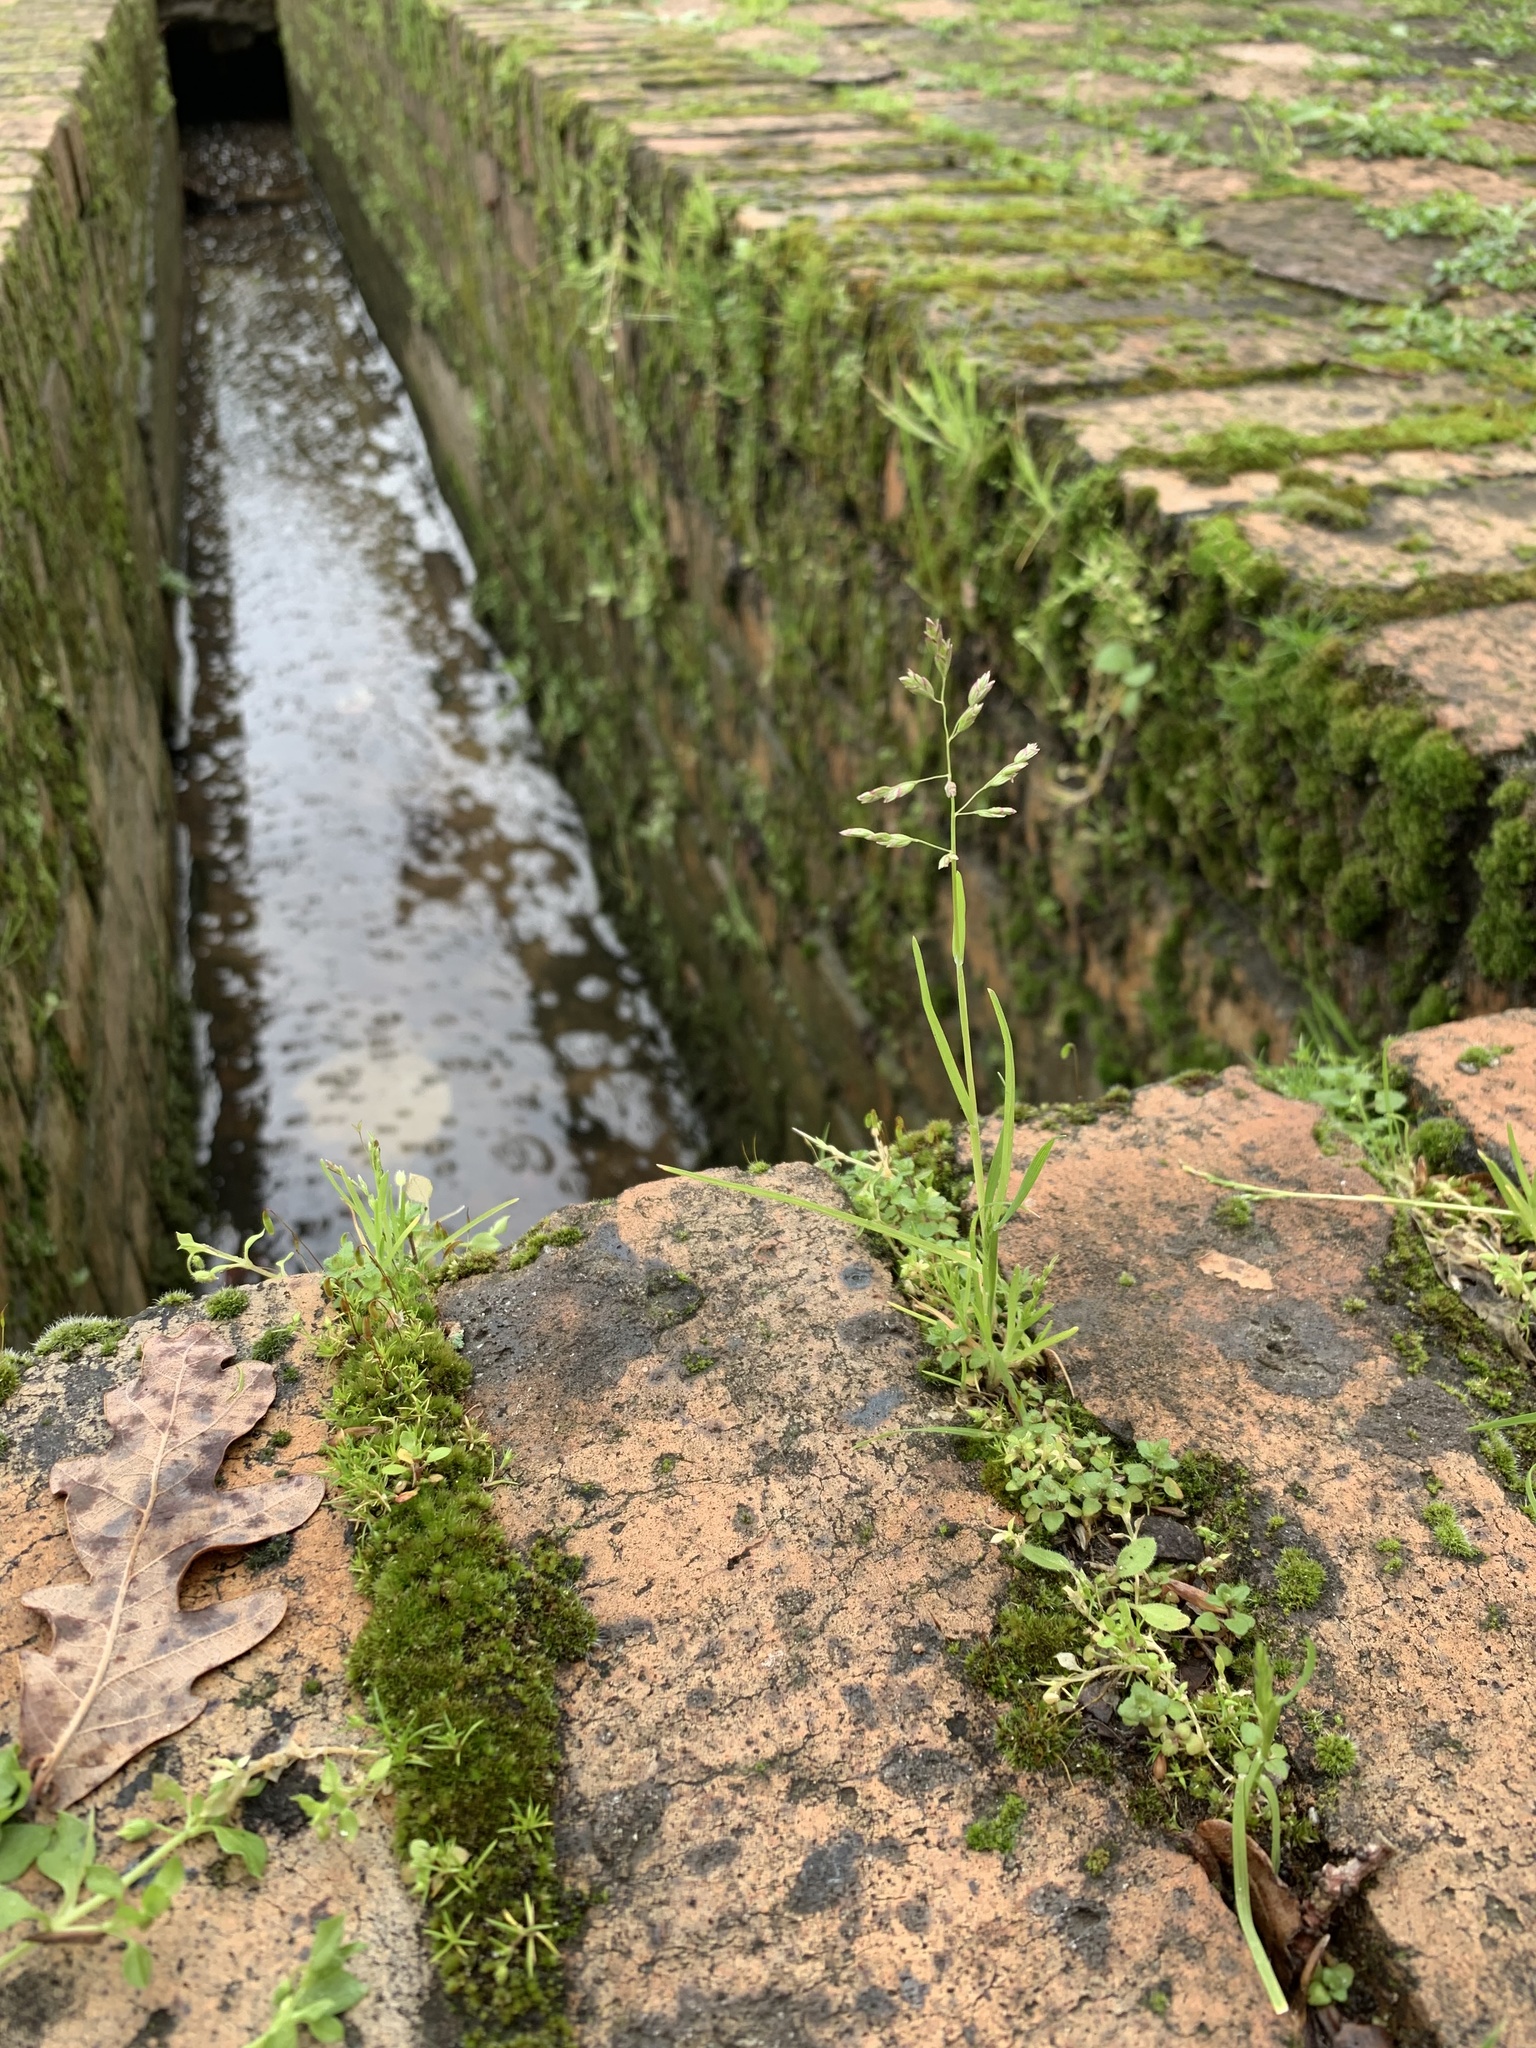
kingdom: Plantae
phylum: Tracheophyta
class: Liliopsida
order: Poales
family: Poaceae
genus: Poa
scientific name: Poa annua
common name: Annual bluegrass
